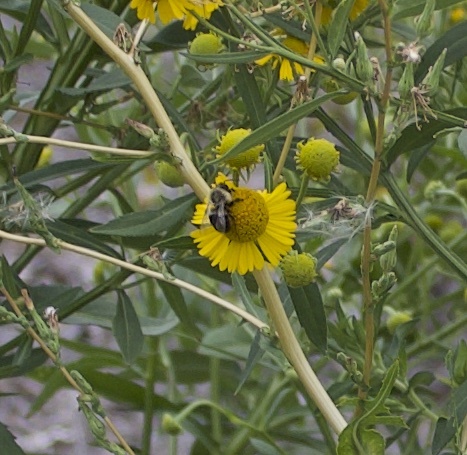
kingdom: Animalia
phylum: Arthropoda
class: Insecta
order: Hymenoptera
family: Apidae
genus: Bombus
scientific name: Bombus impatiens
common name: Common eastern bumble bee
